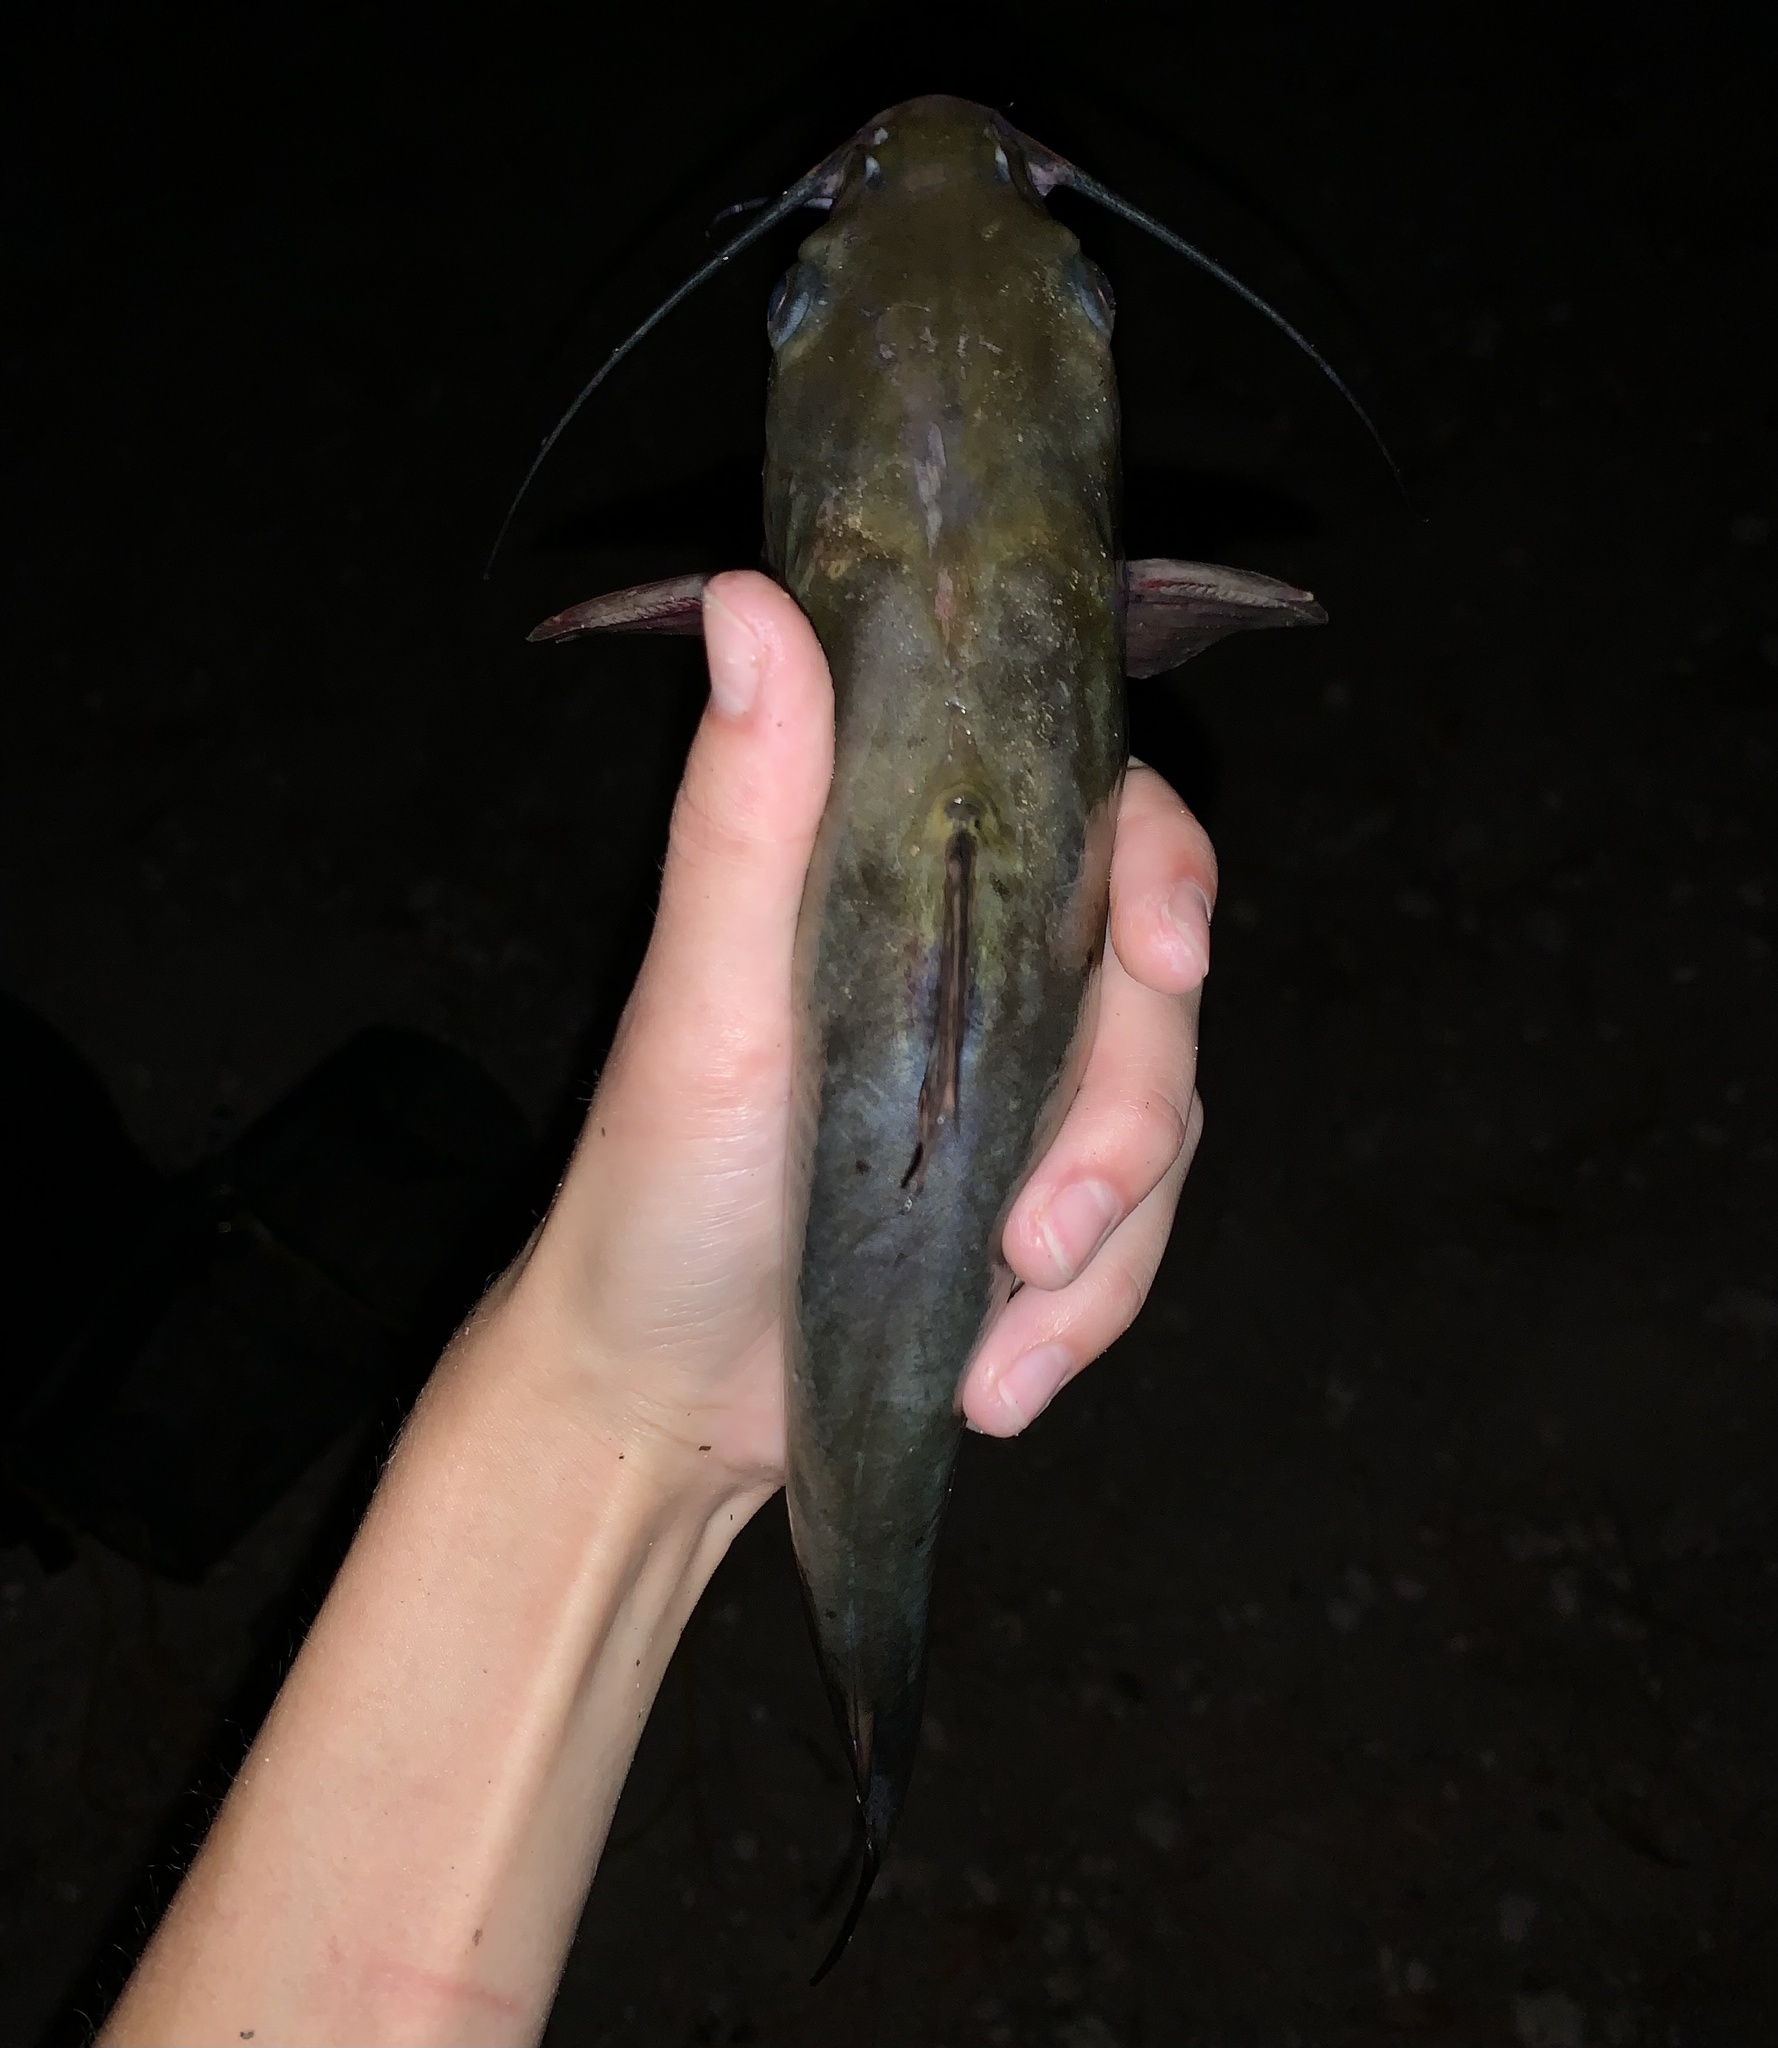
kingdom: Animalia
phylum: Chordata
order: Siluriformes
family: Ictaluridae
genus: Ictalurus
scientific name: Ictalurus punctatus
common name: Channel catfish
